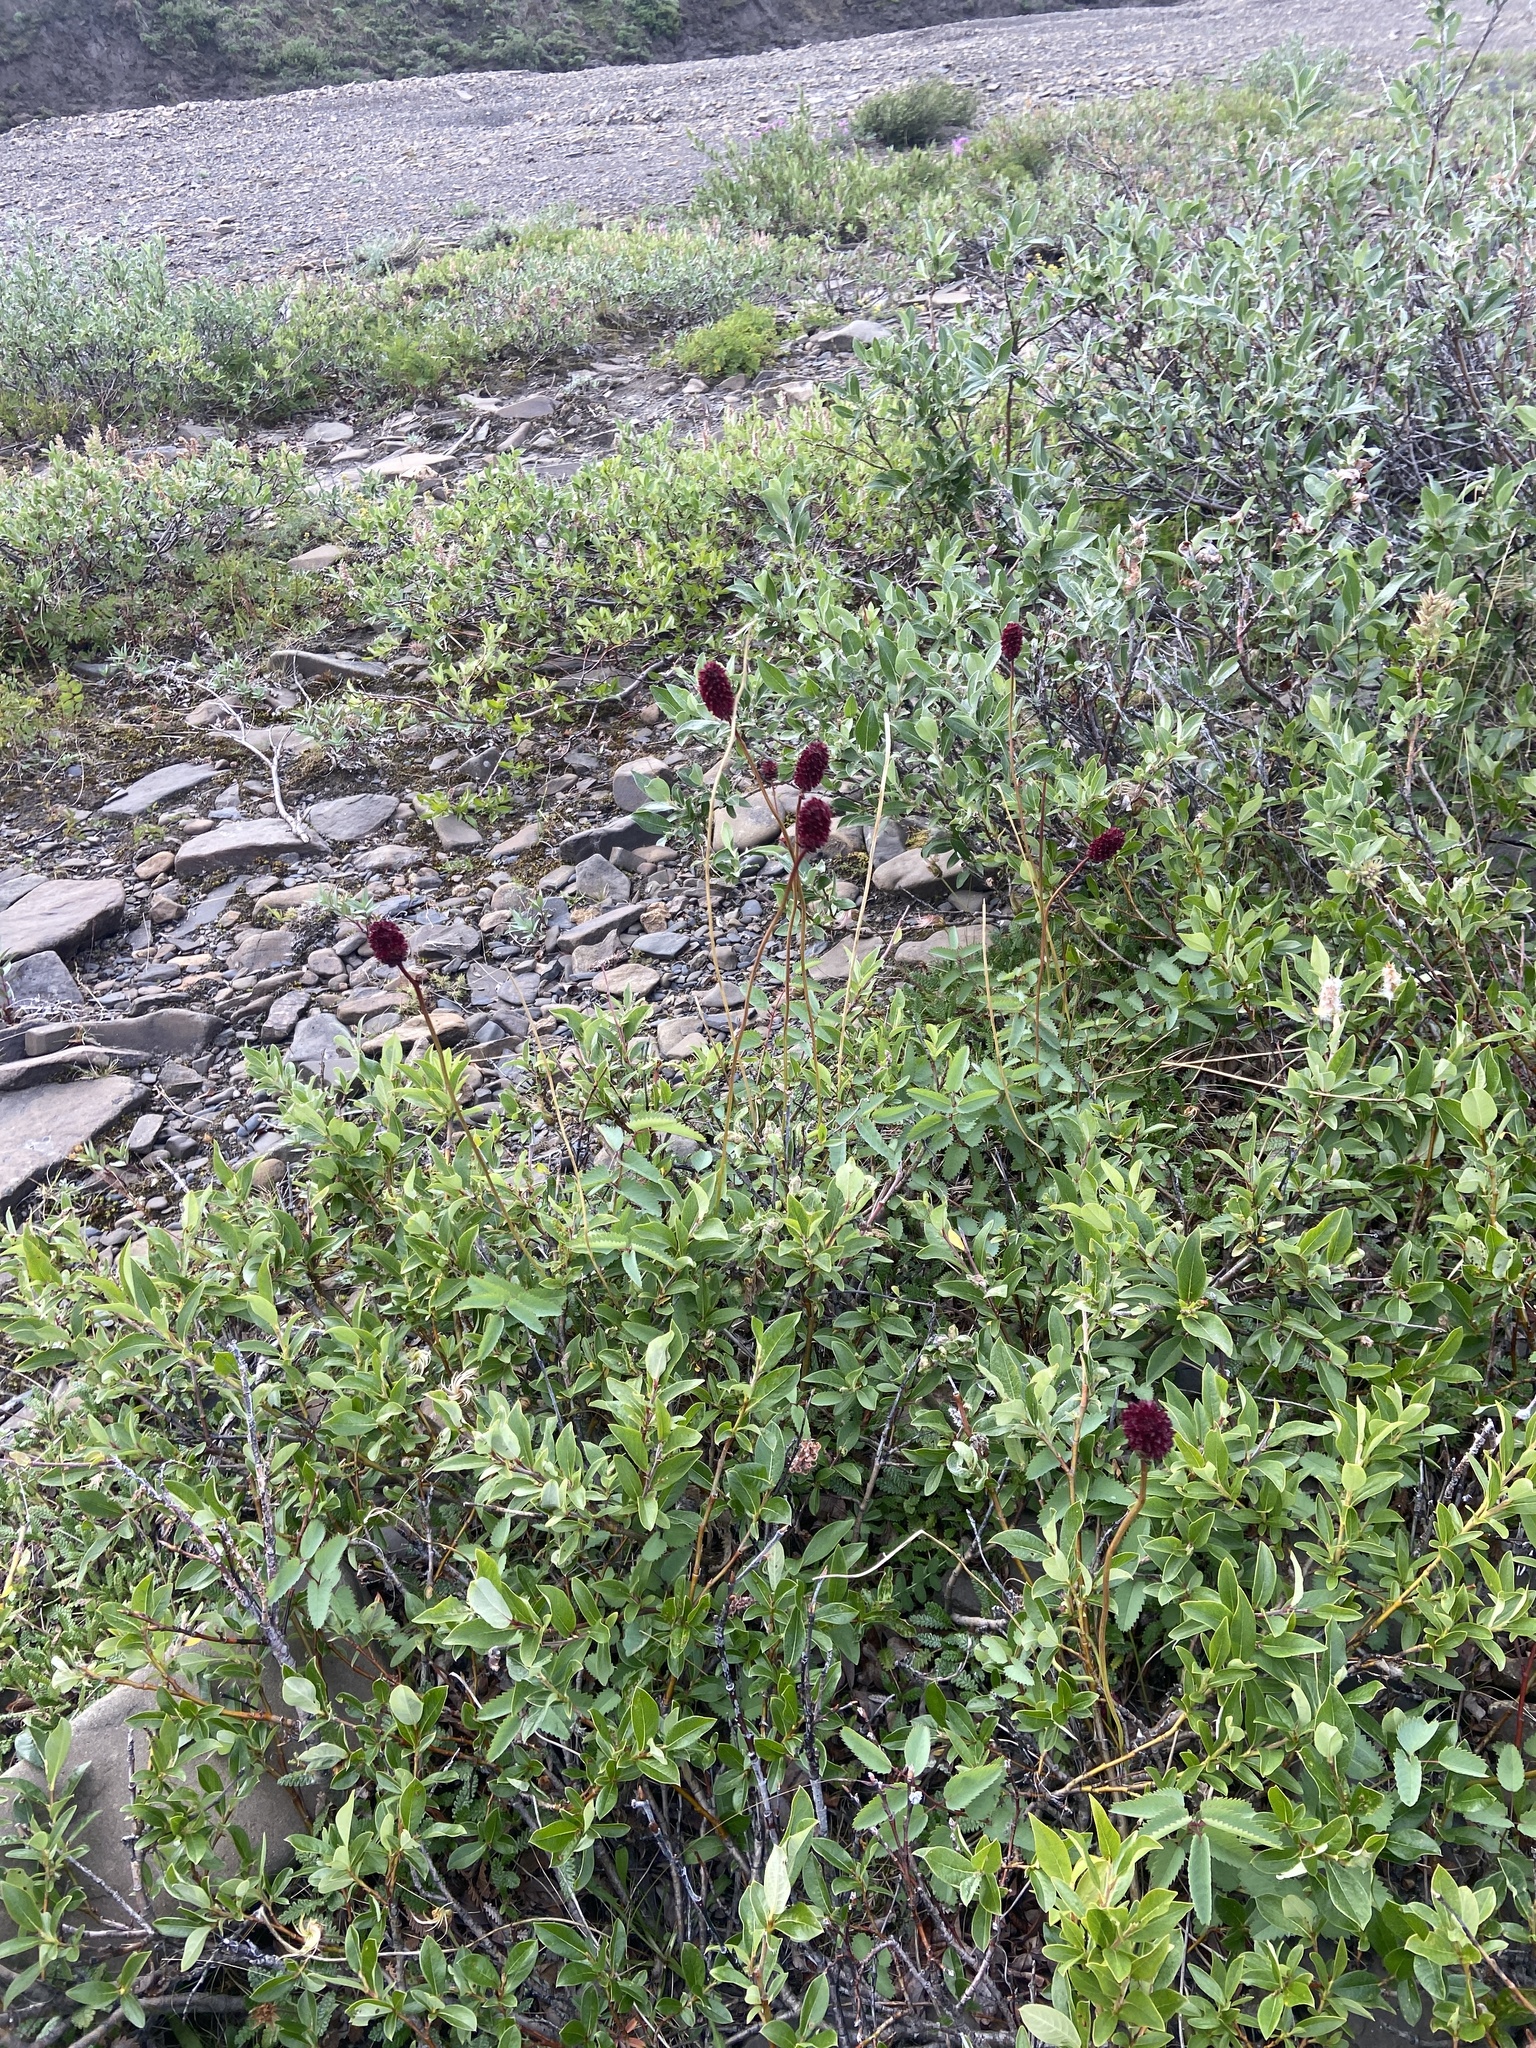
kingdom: Plantae
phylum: Tracheophyta
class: Magnoliopsida
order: Rosales
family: Rosaceae
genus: Sanguisorba
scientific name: Sanguisorba officinalis
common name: Great burnet
